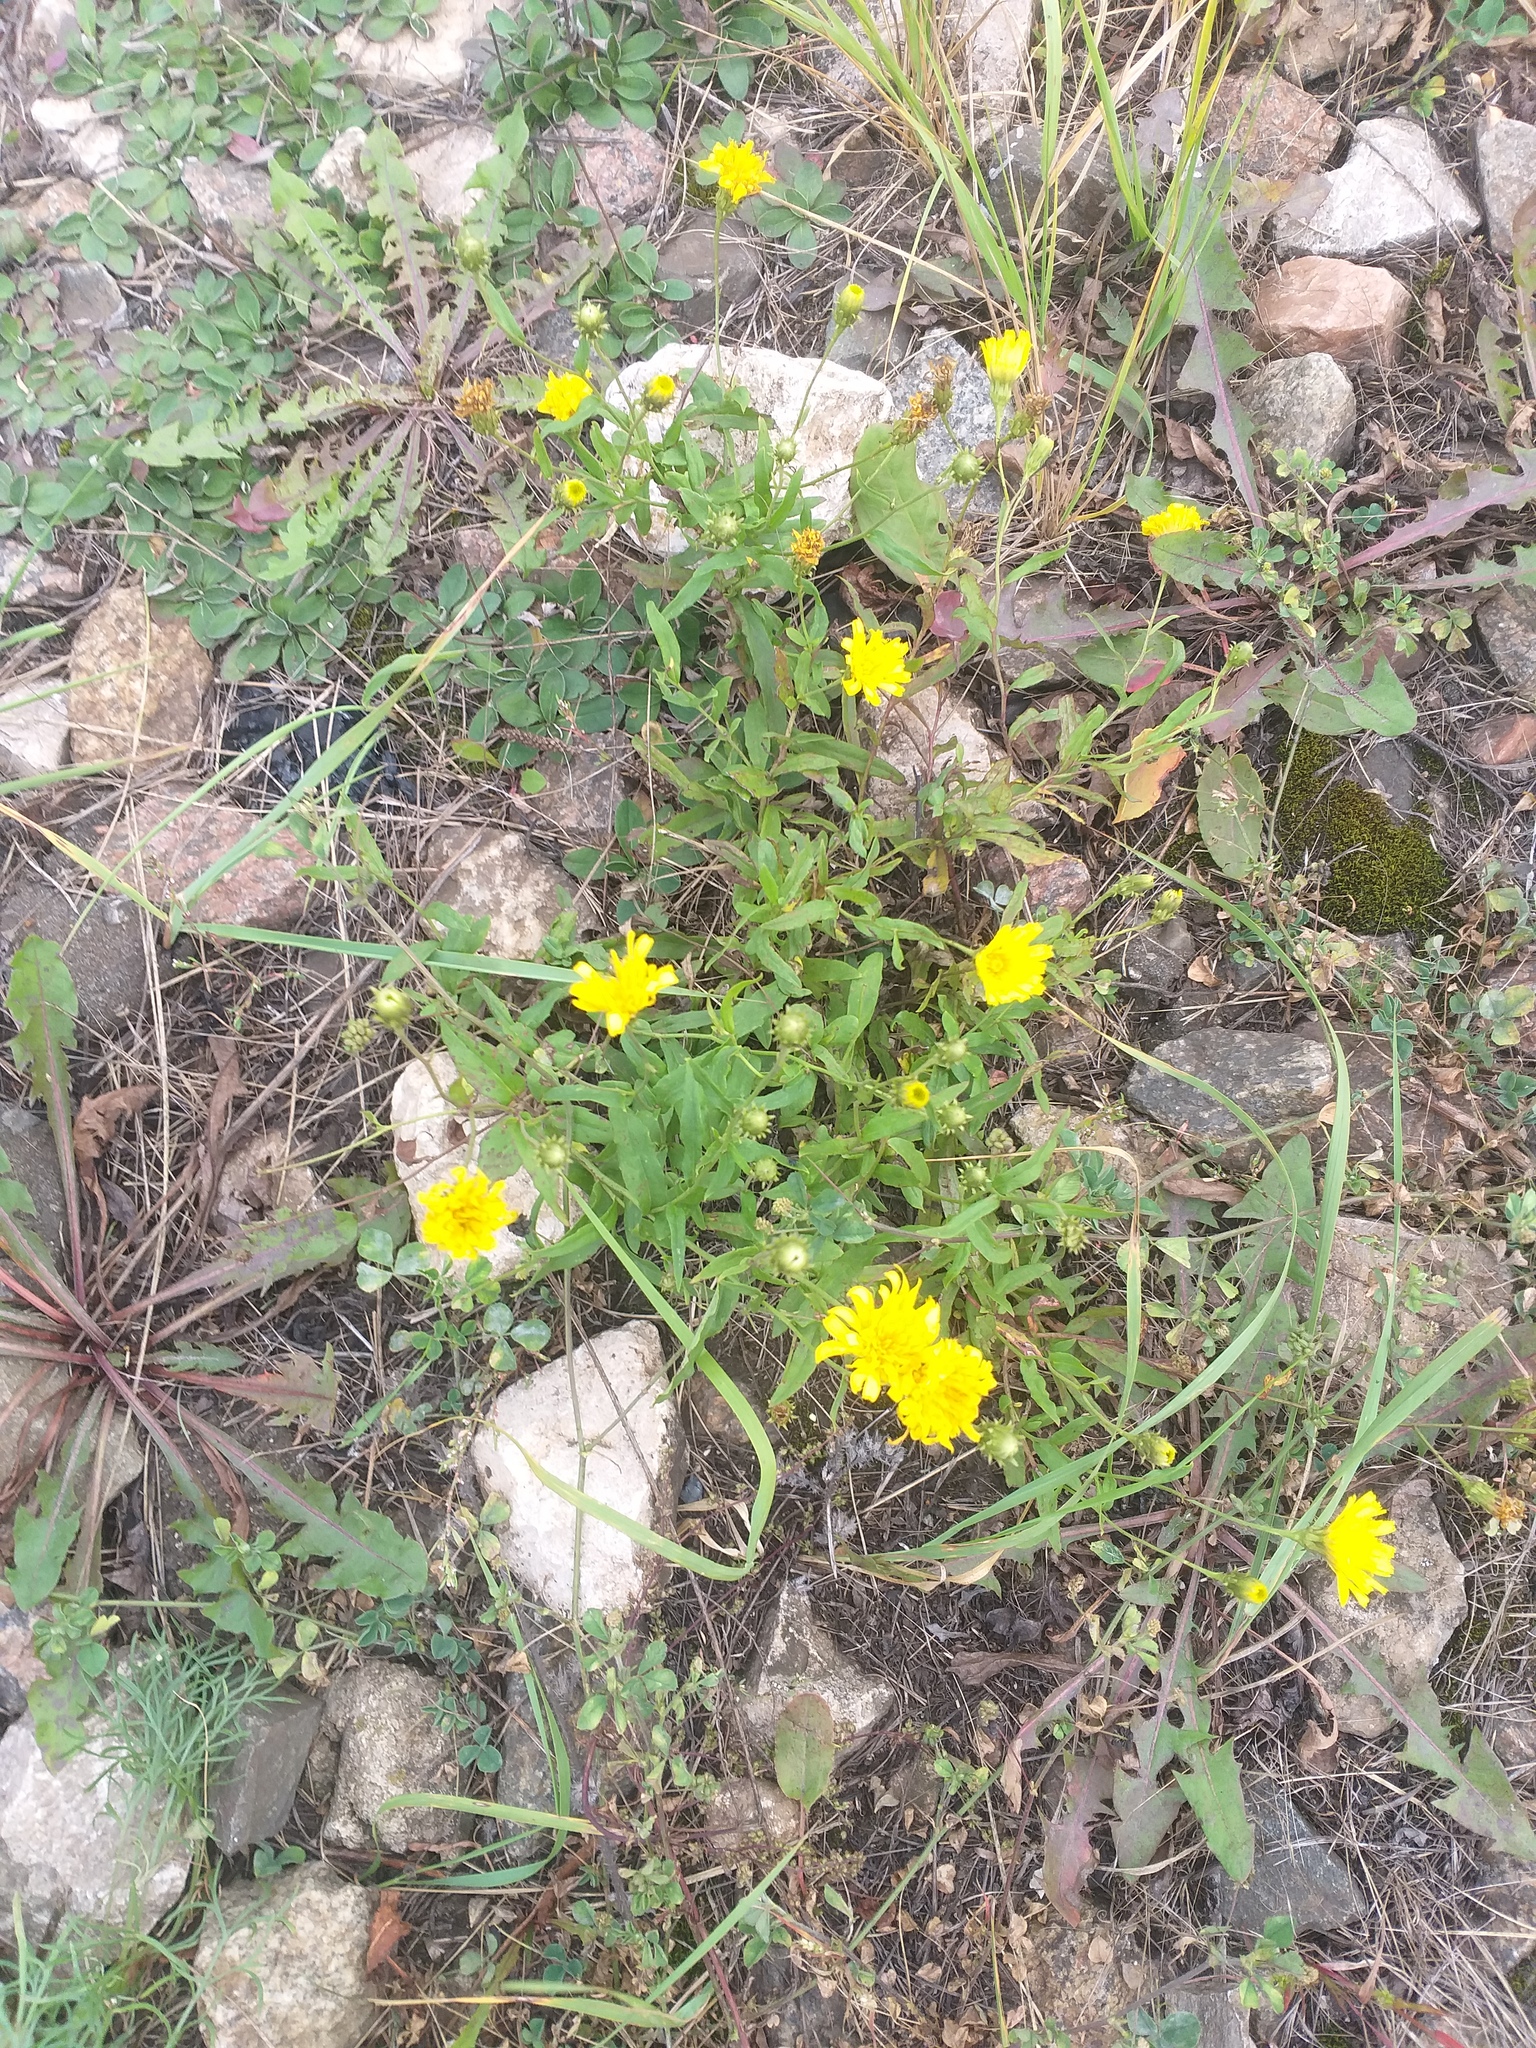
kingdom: Plantae
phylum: Tracheophyta
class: Magnoliopsida
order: Asterales
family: Asteraceae
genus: Hieracium
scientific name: Hieracium umbellatum
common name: Northern hawkweed
